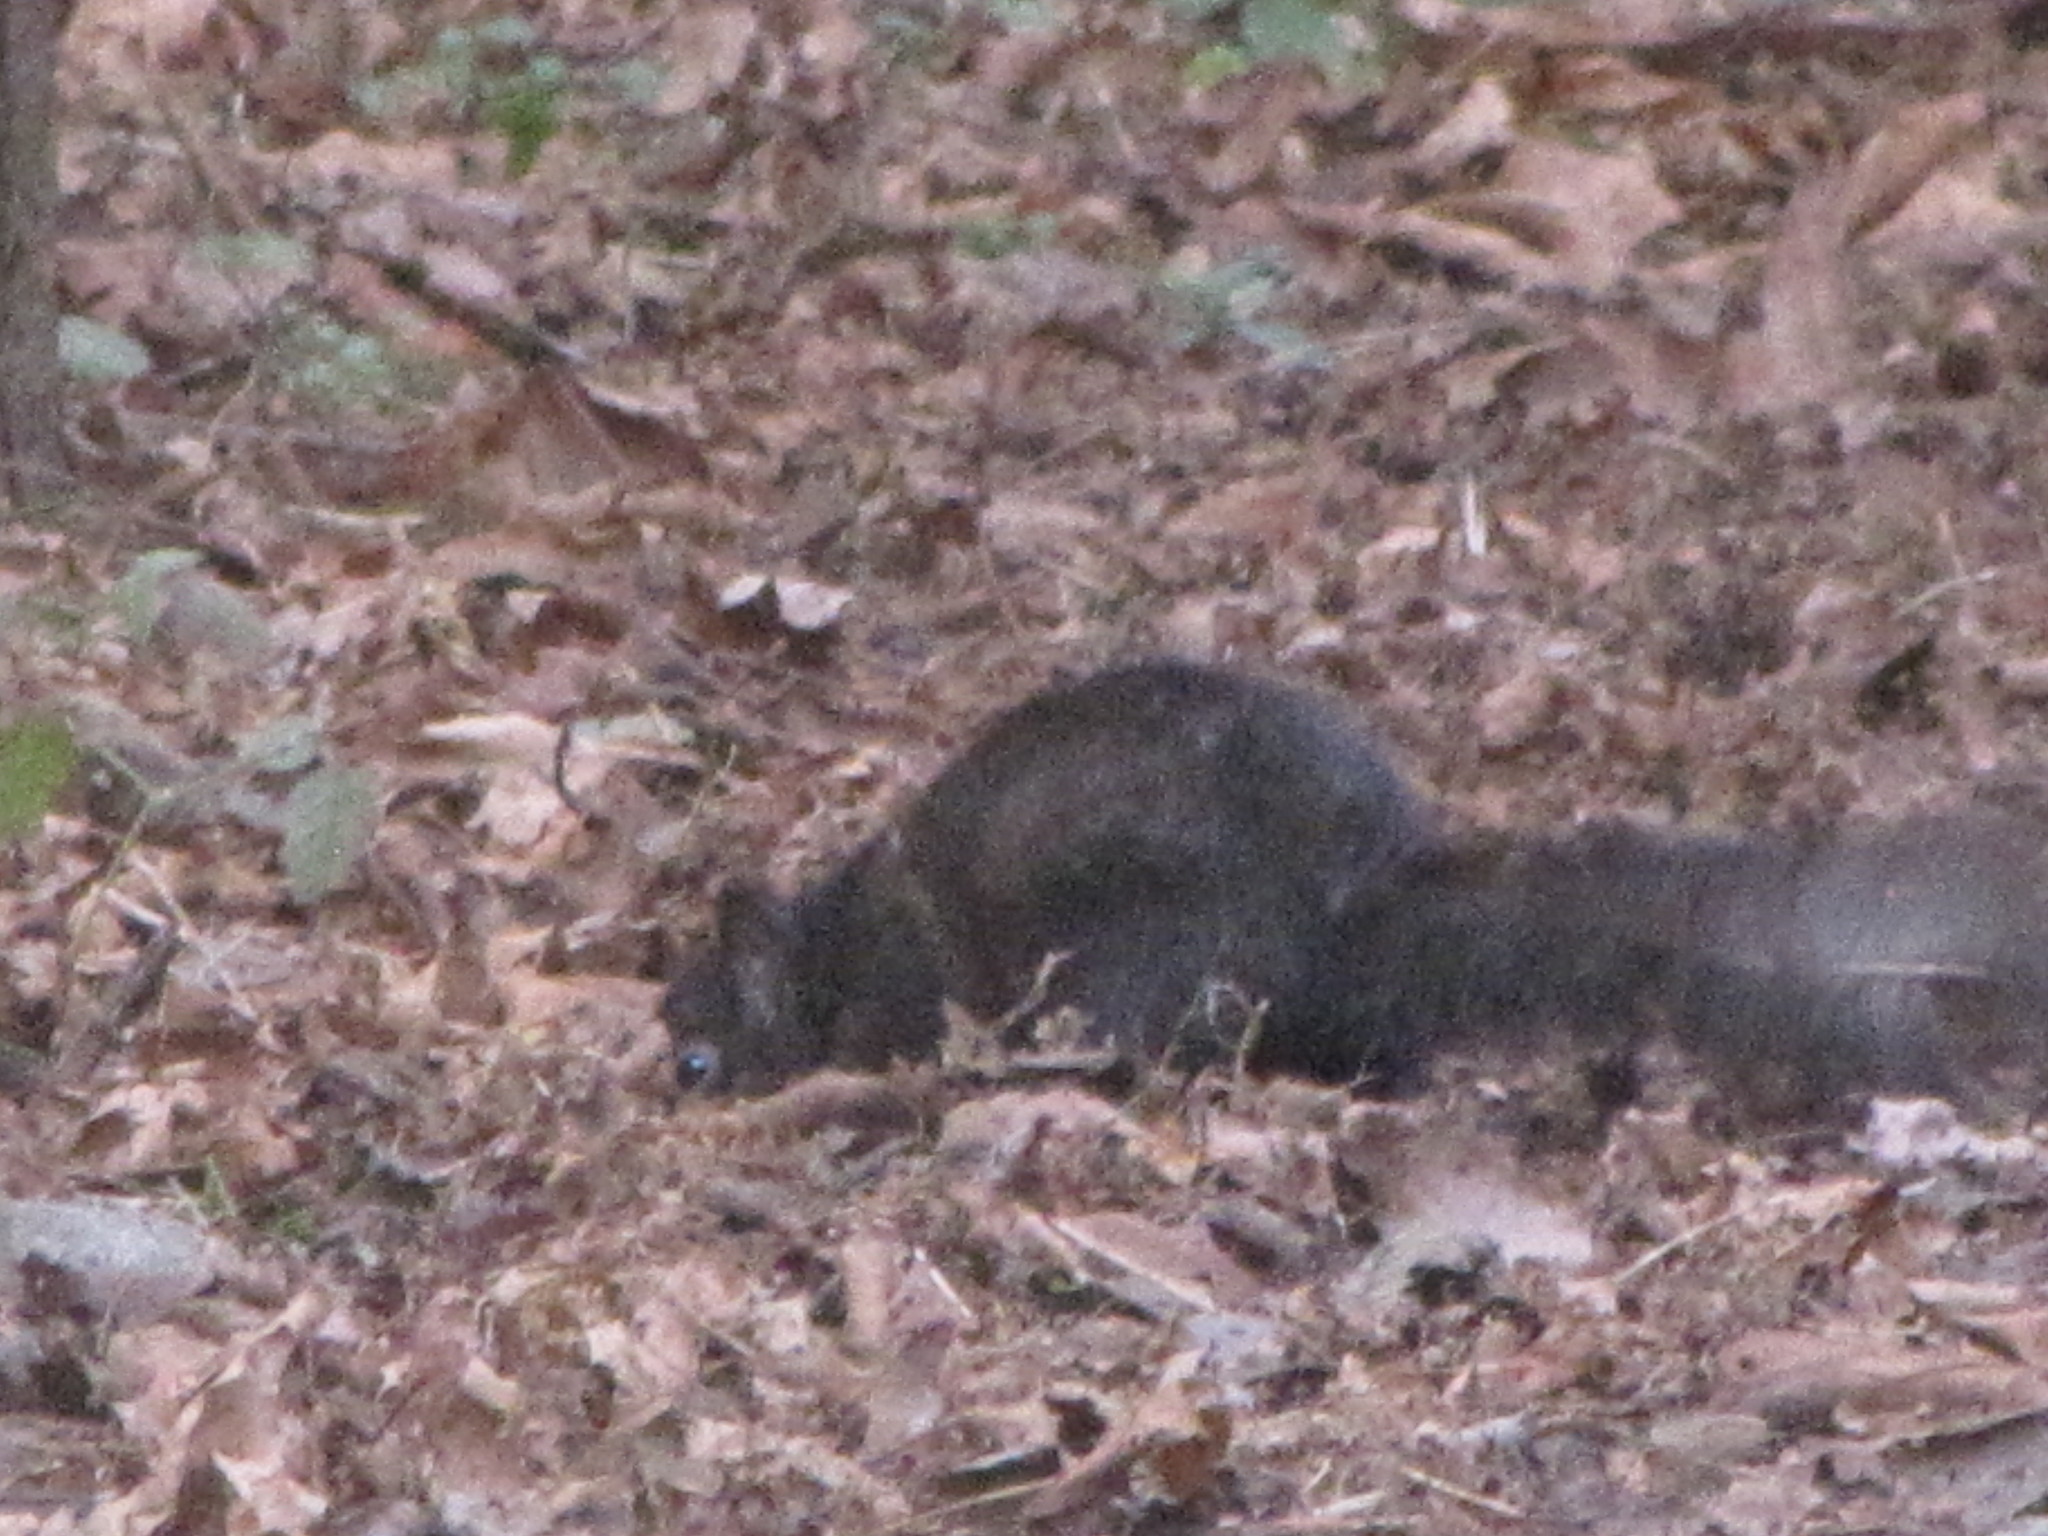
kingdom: Animalia
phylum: Chordata
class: Mammalia
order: Rodentia
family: Sciuridae
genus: Sciurus
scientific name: Sciurus carolinensis
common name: Eastern gray squirrel
